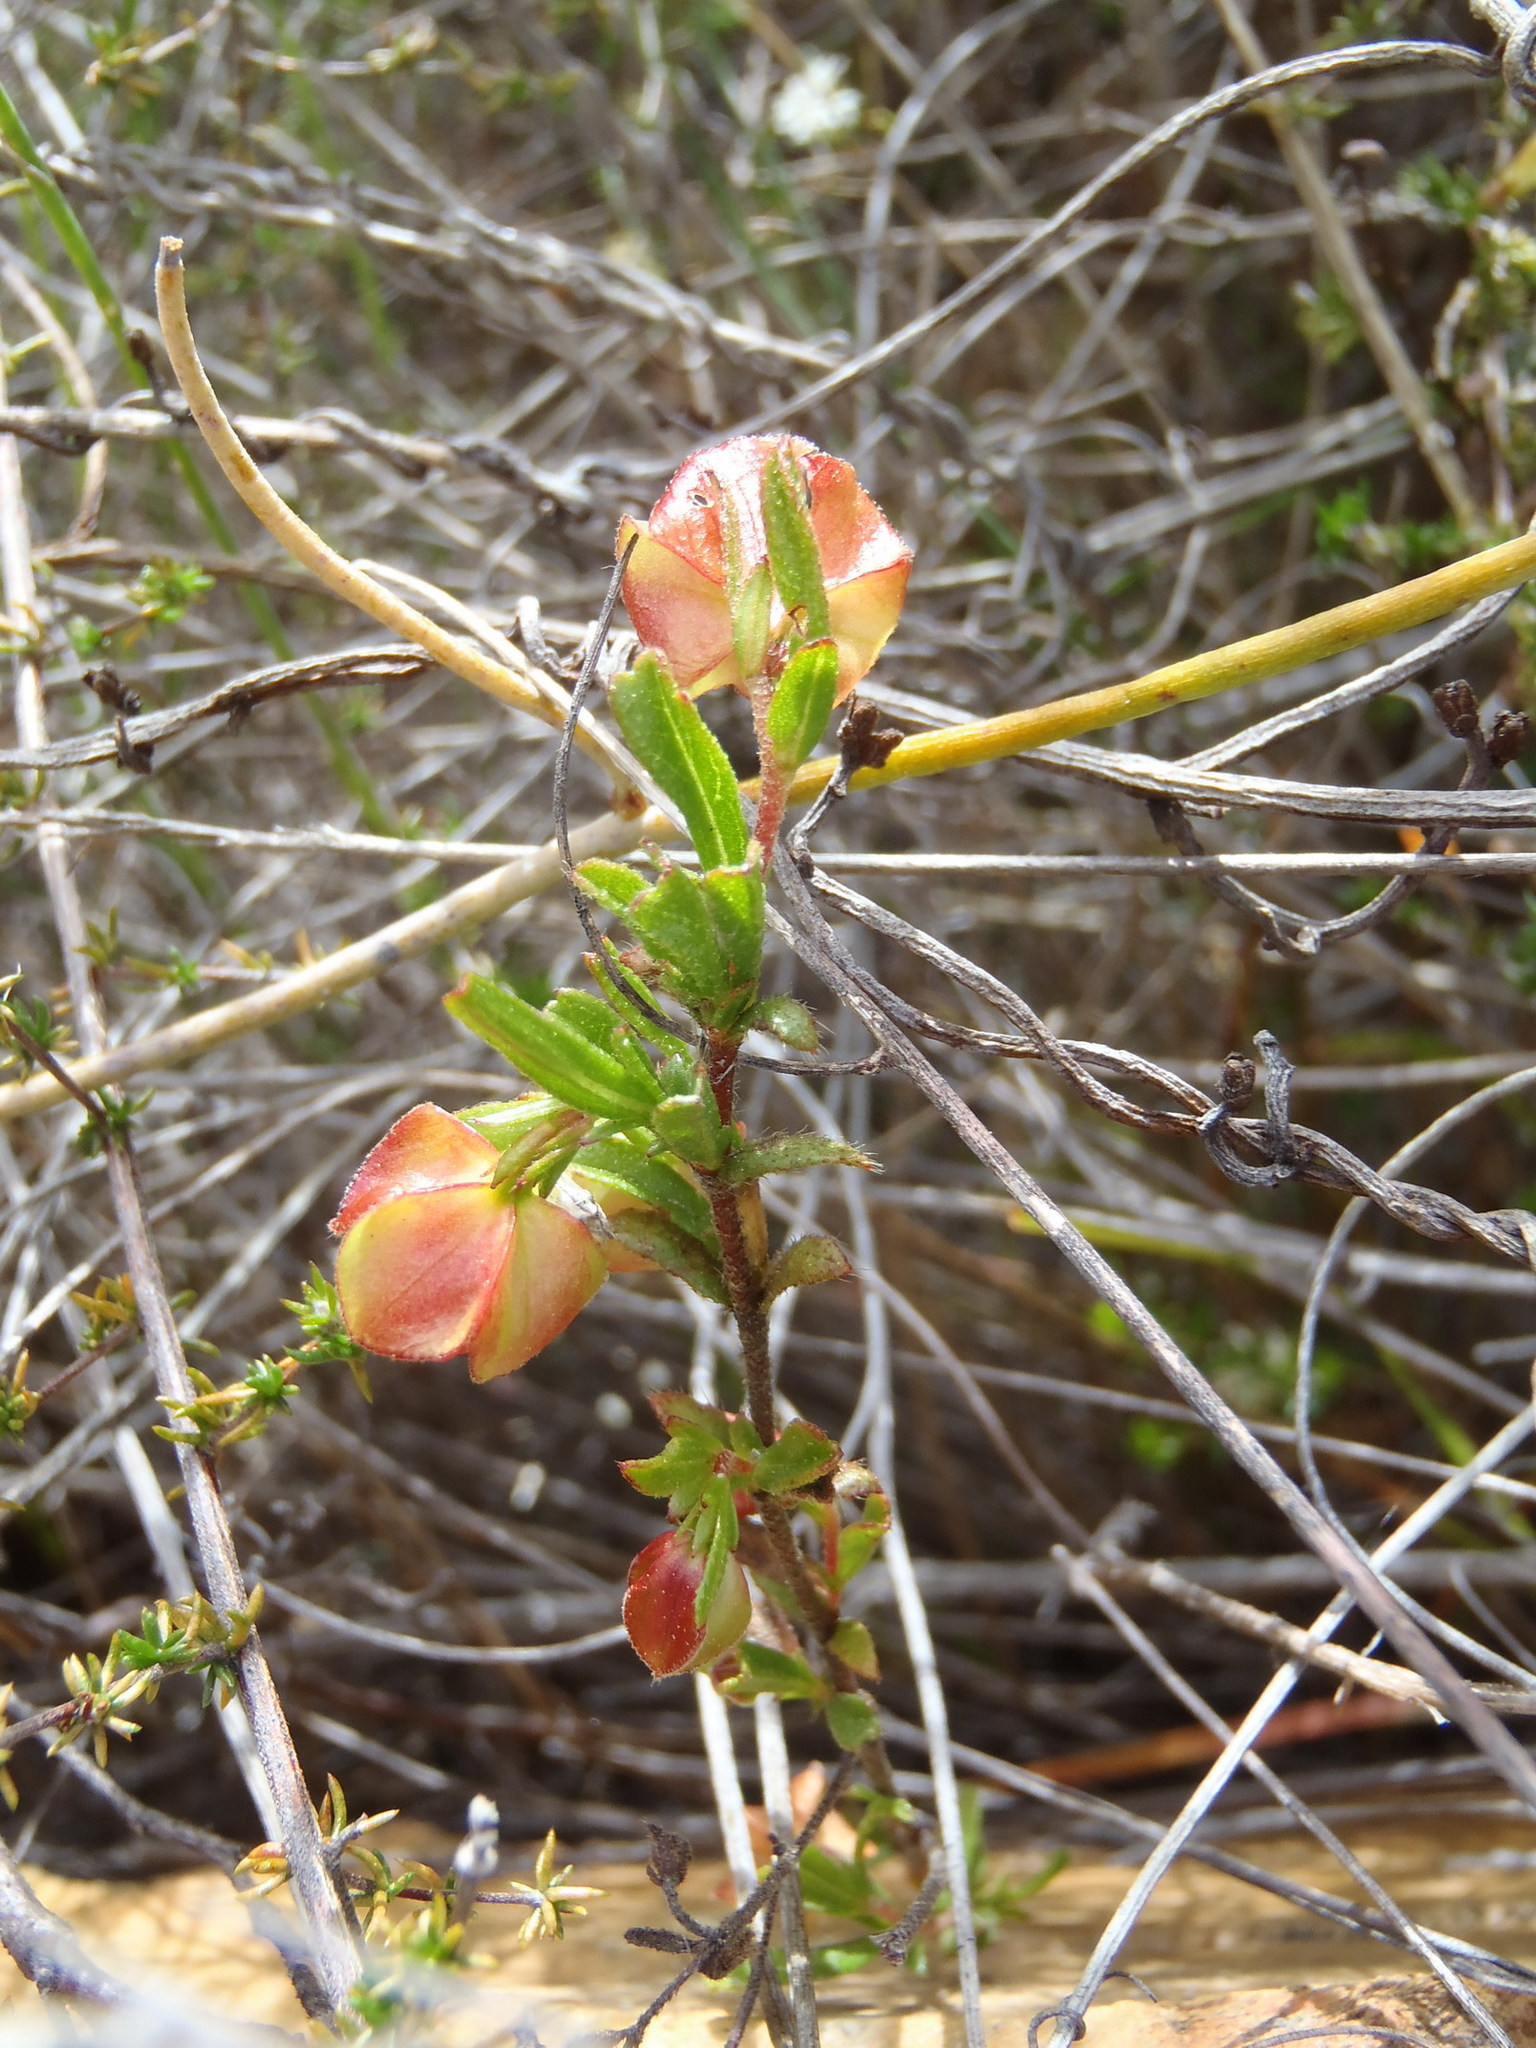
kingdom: Plantae
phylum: Tracheophyta
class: Magnoliopsida
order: Malvales
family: Malvaceae
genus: Hermannia
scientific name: Hermannia angularis
